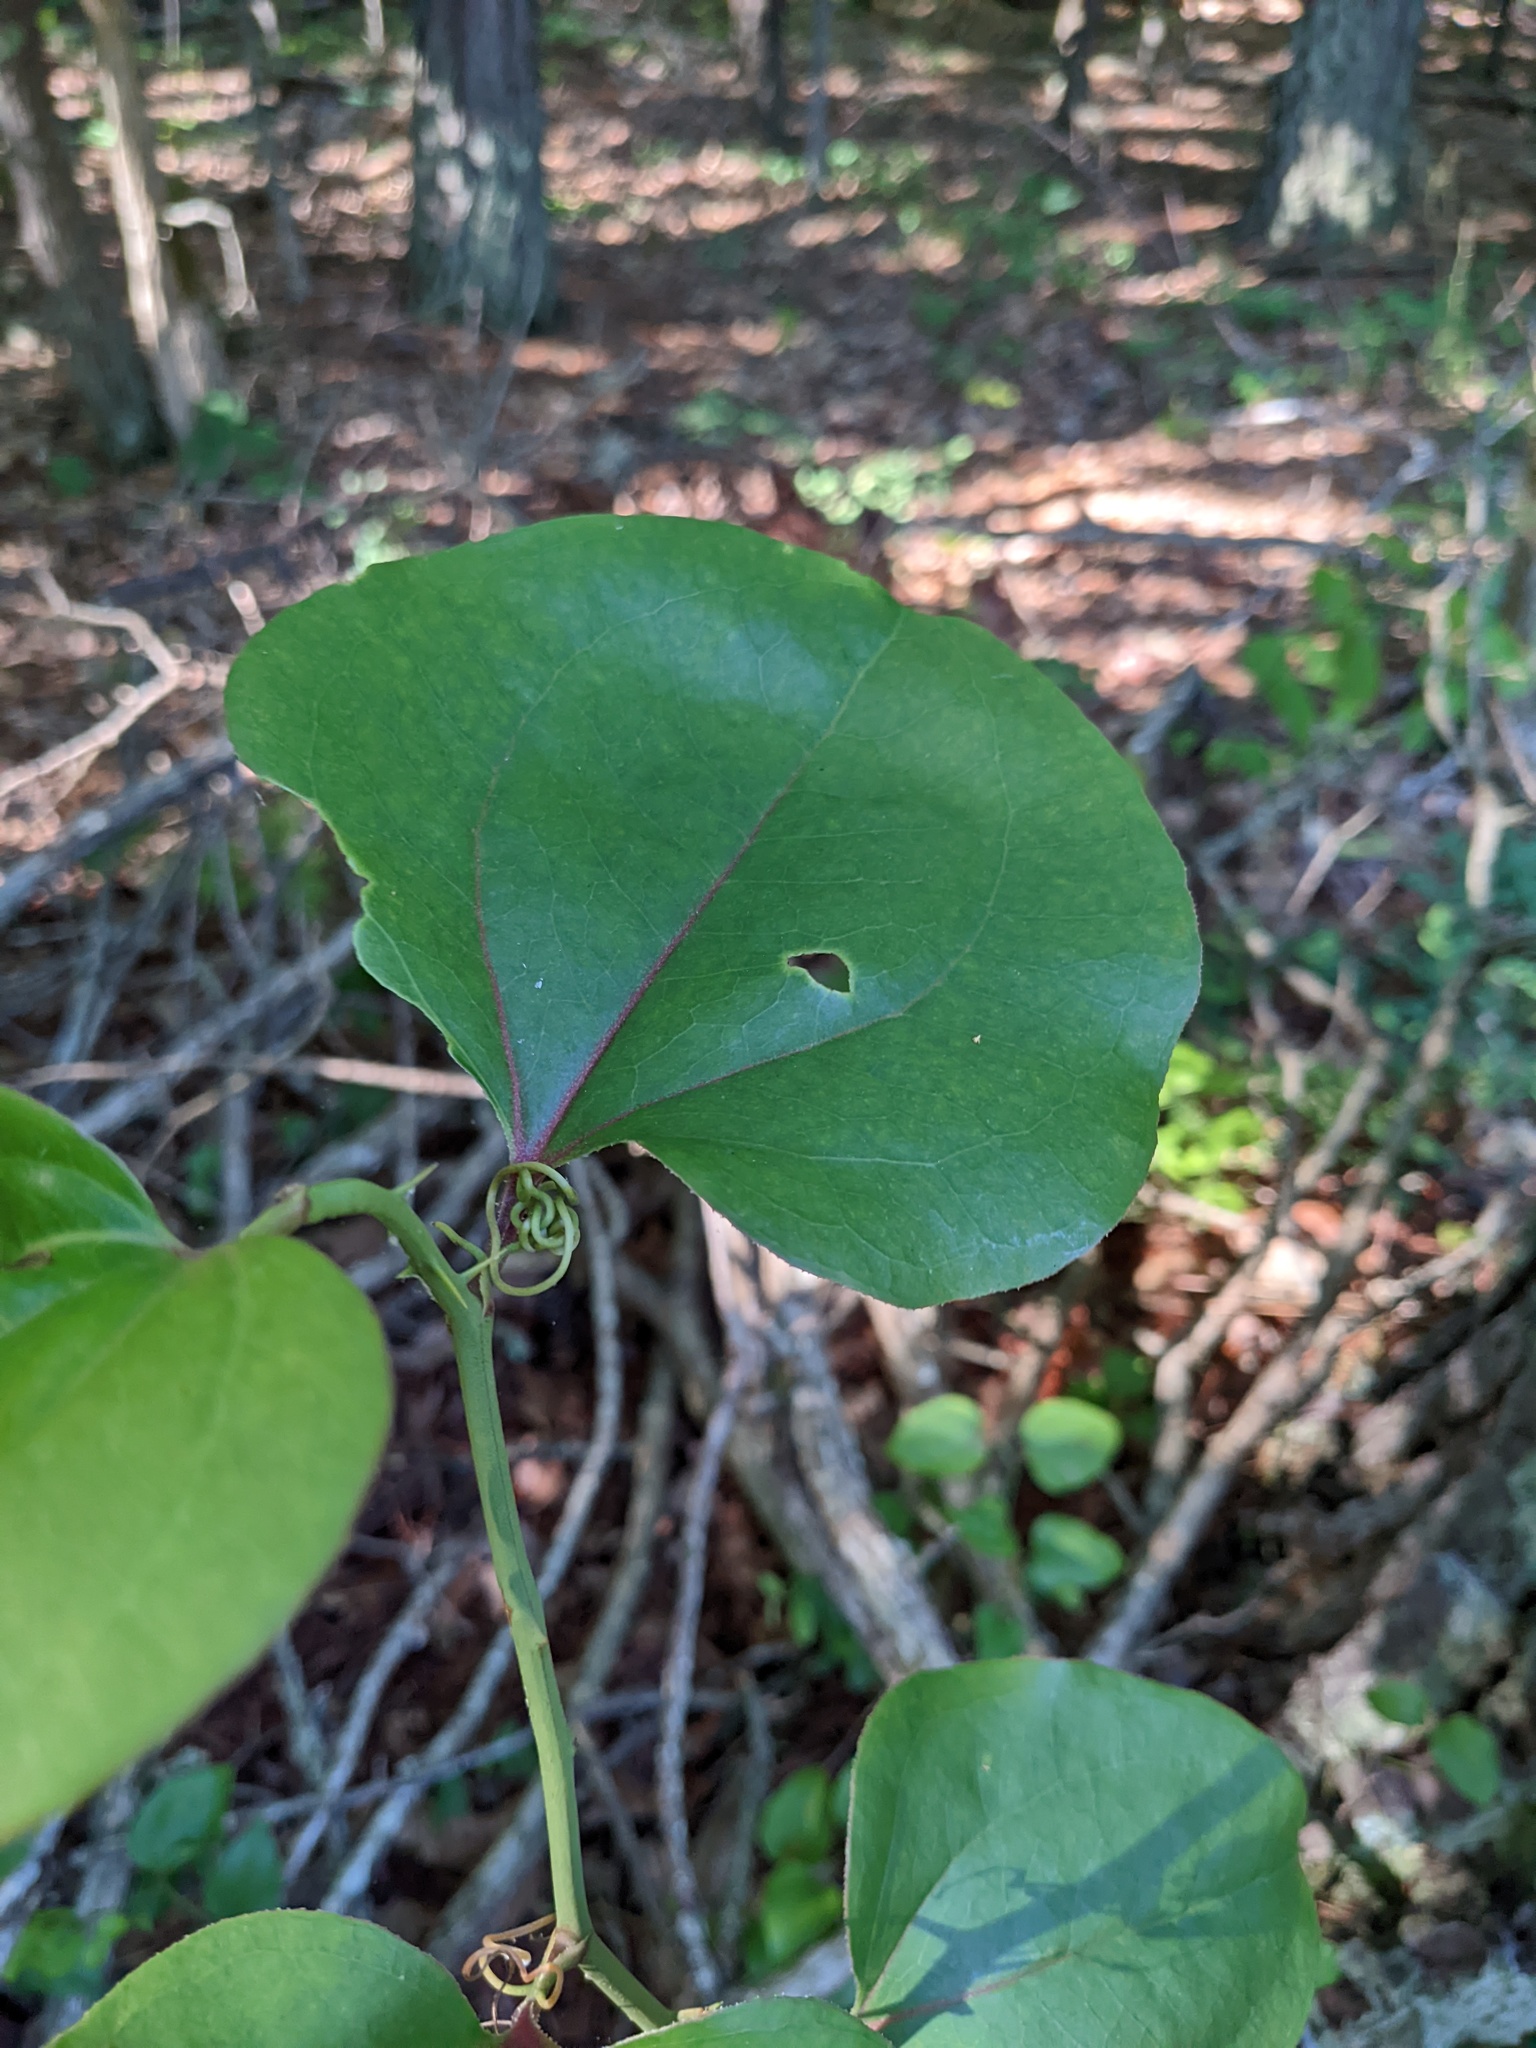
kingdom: Plantae
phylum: Tracheophyta
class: Liliopsida
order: Liliales
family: Smilacaceae
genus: Smilax
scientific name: Smilax rotundifolia
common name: Bullbriar
